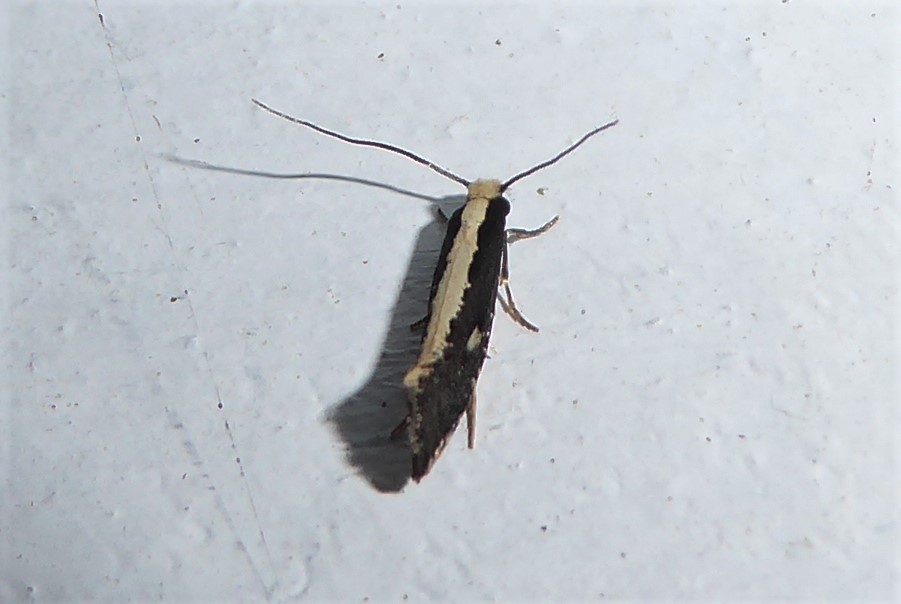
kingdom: Animalia
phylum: Arthropoda
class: Insecta
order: Lepidoptera
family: Tineidae
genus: Monopis
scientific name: Monopis ethelella
